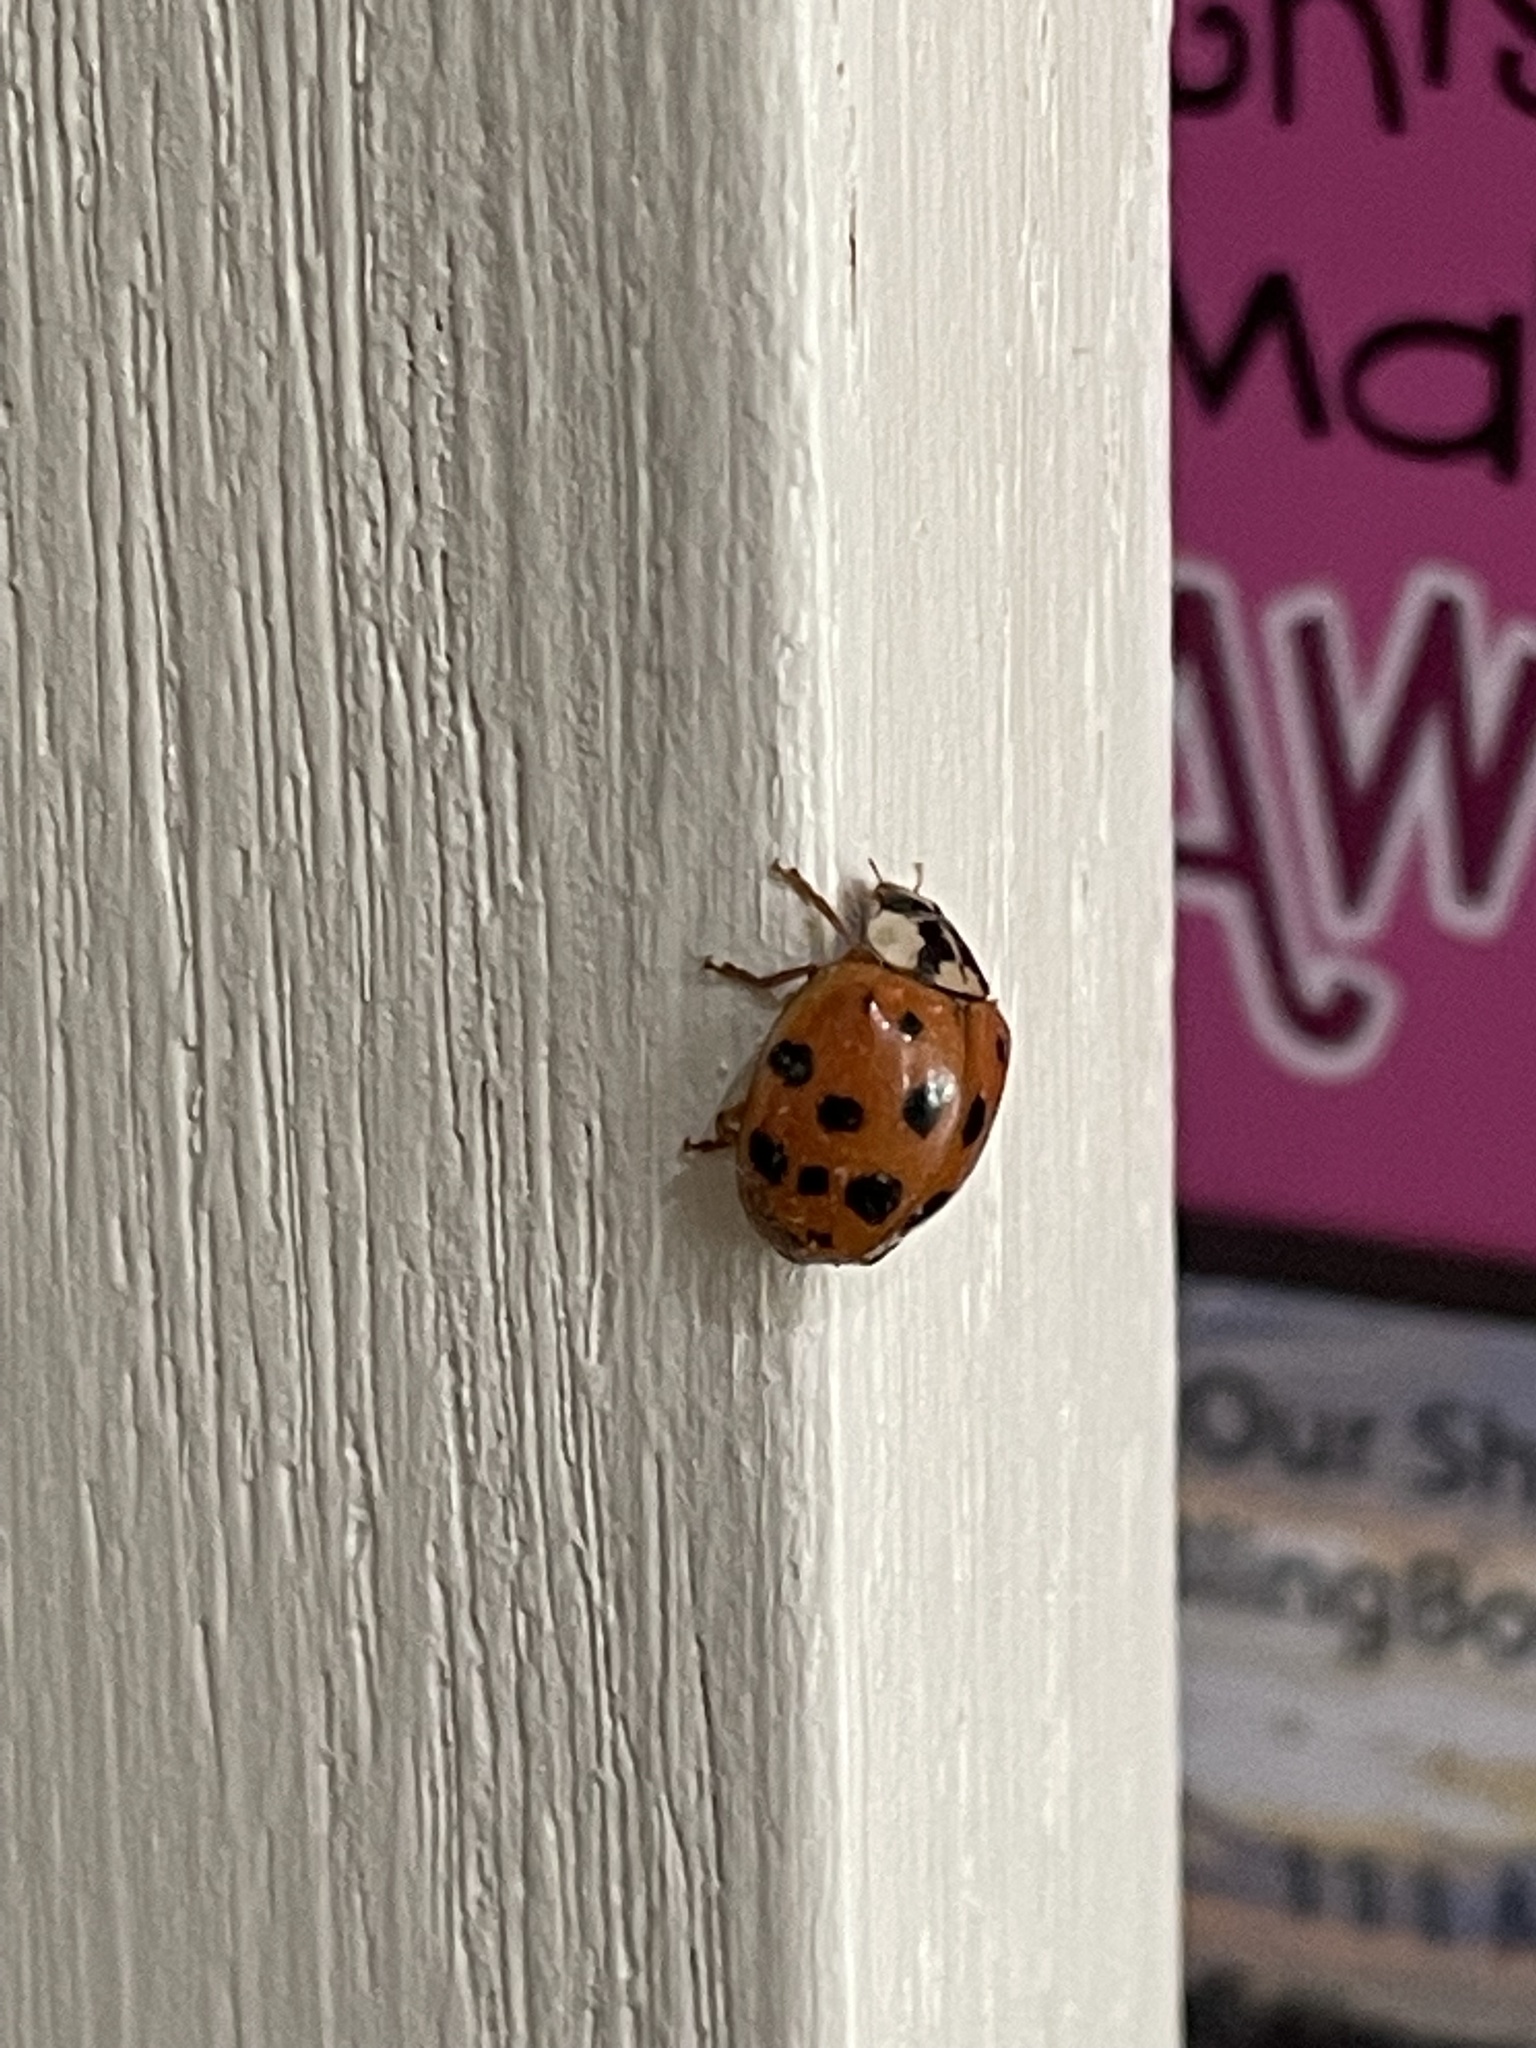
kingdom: Animalia
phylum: Arthropoda
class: Insecta
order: Coleoptera
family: Coccinellidae
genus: Harmonia
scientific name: Harmonia axyridis
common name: Harlequin ladybird
